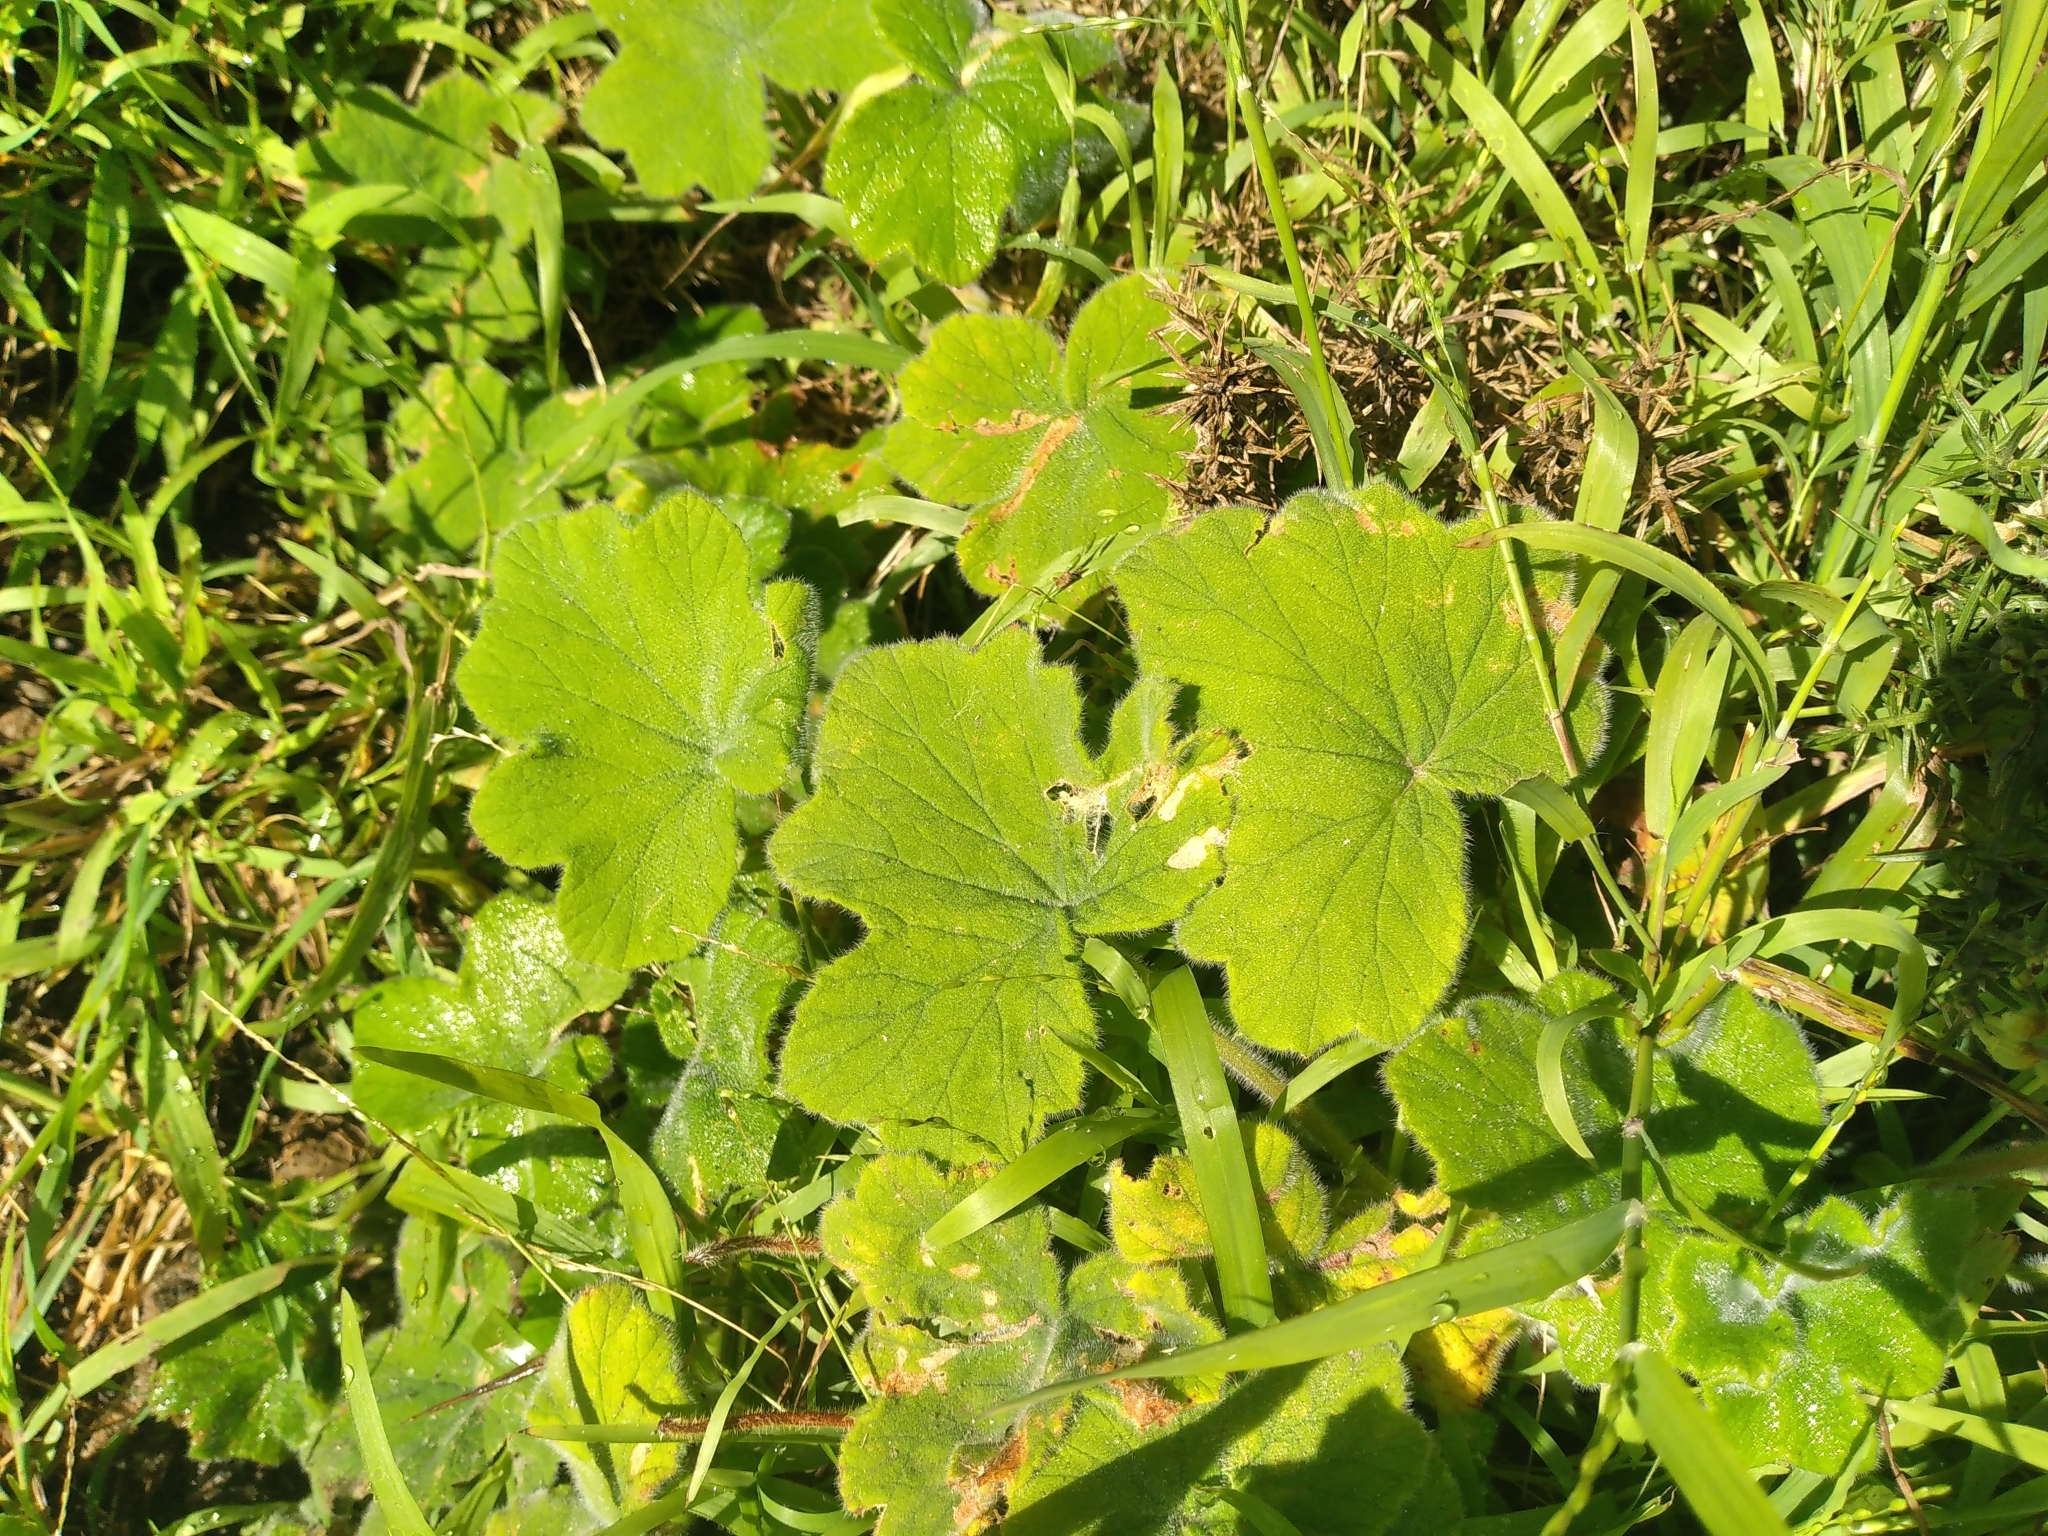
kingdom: Plantae
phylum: Tracheophyta
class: Magnoliopsida
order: Geraniales
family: Geraniaceae
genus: Pelargonium
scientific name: Pelargonium tomentosum
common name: Peppermint-scented geranium
